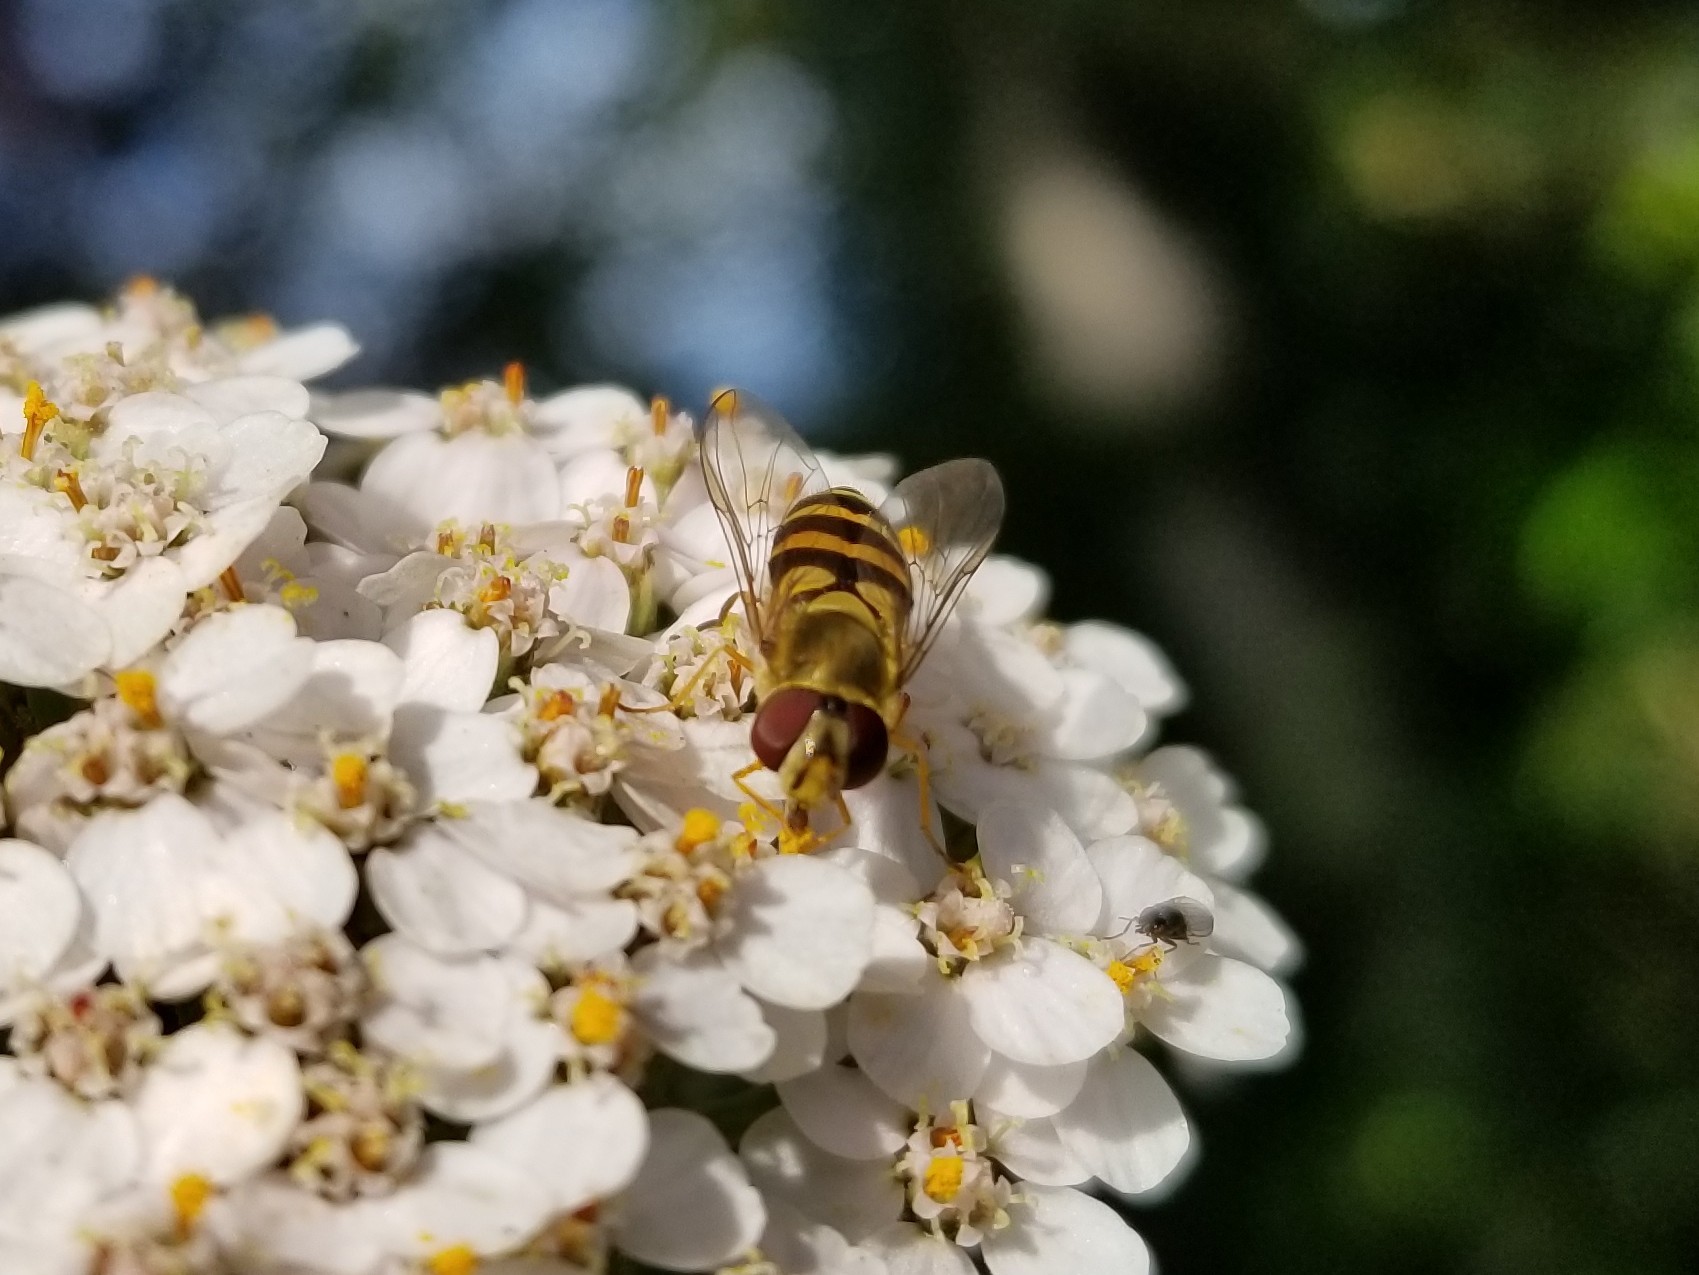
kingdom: Animalia
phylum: Arthropoda
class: Insecta
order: Diptera
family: Syrphidae
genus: Syrphus
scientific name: Syrphus
